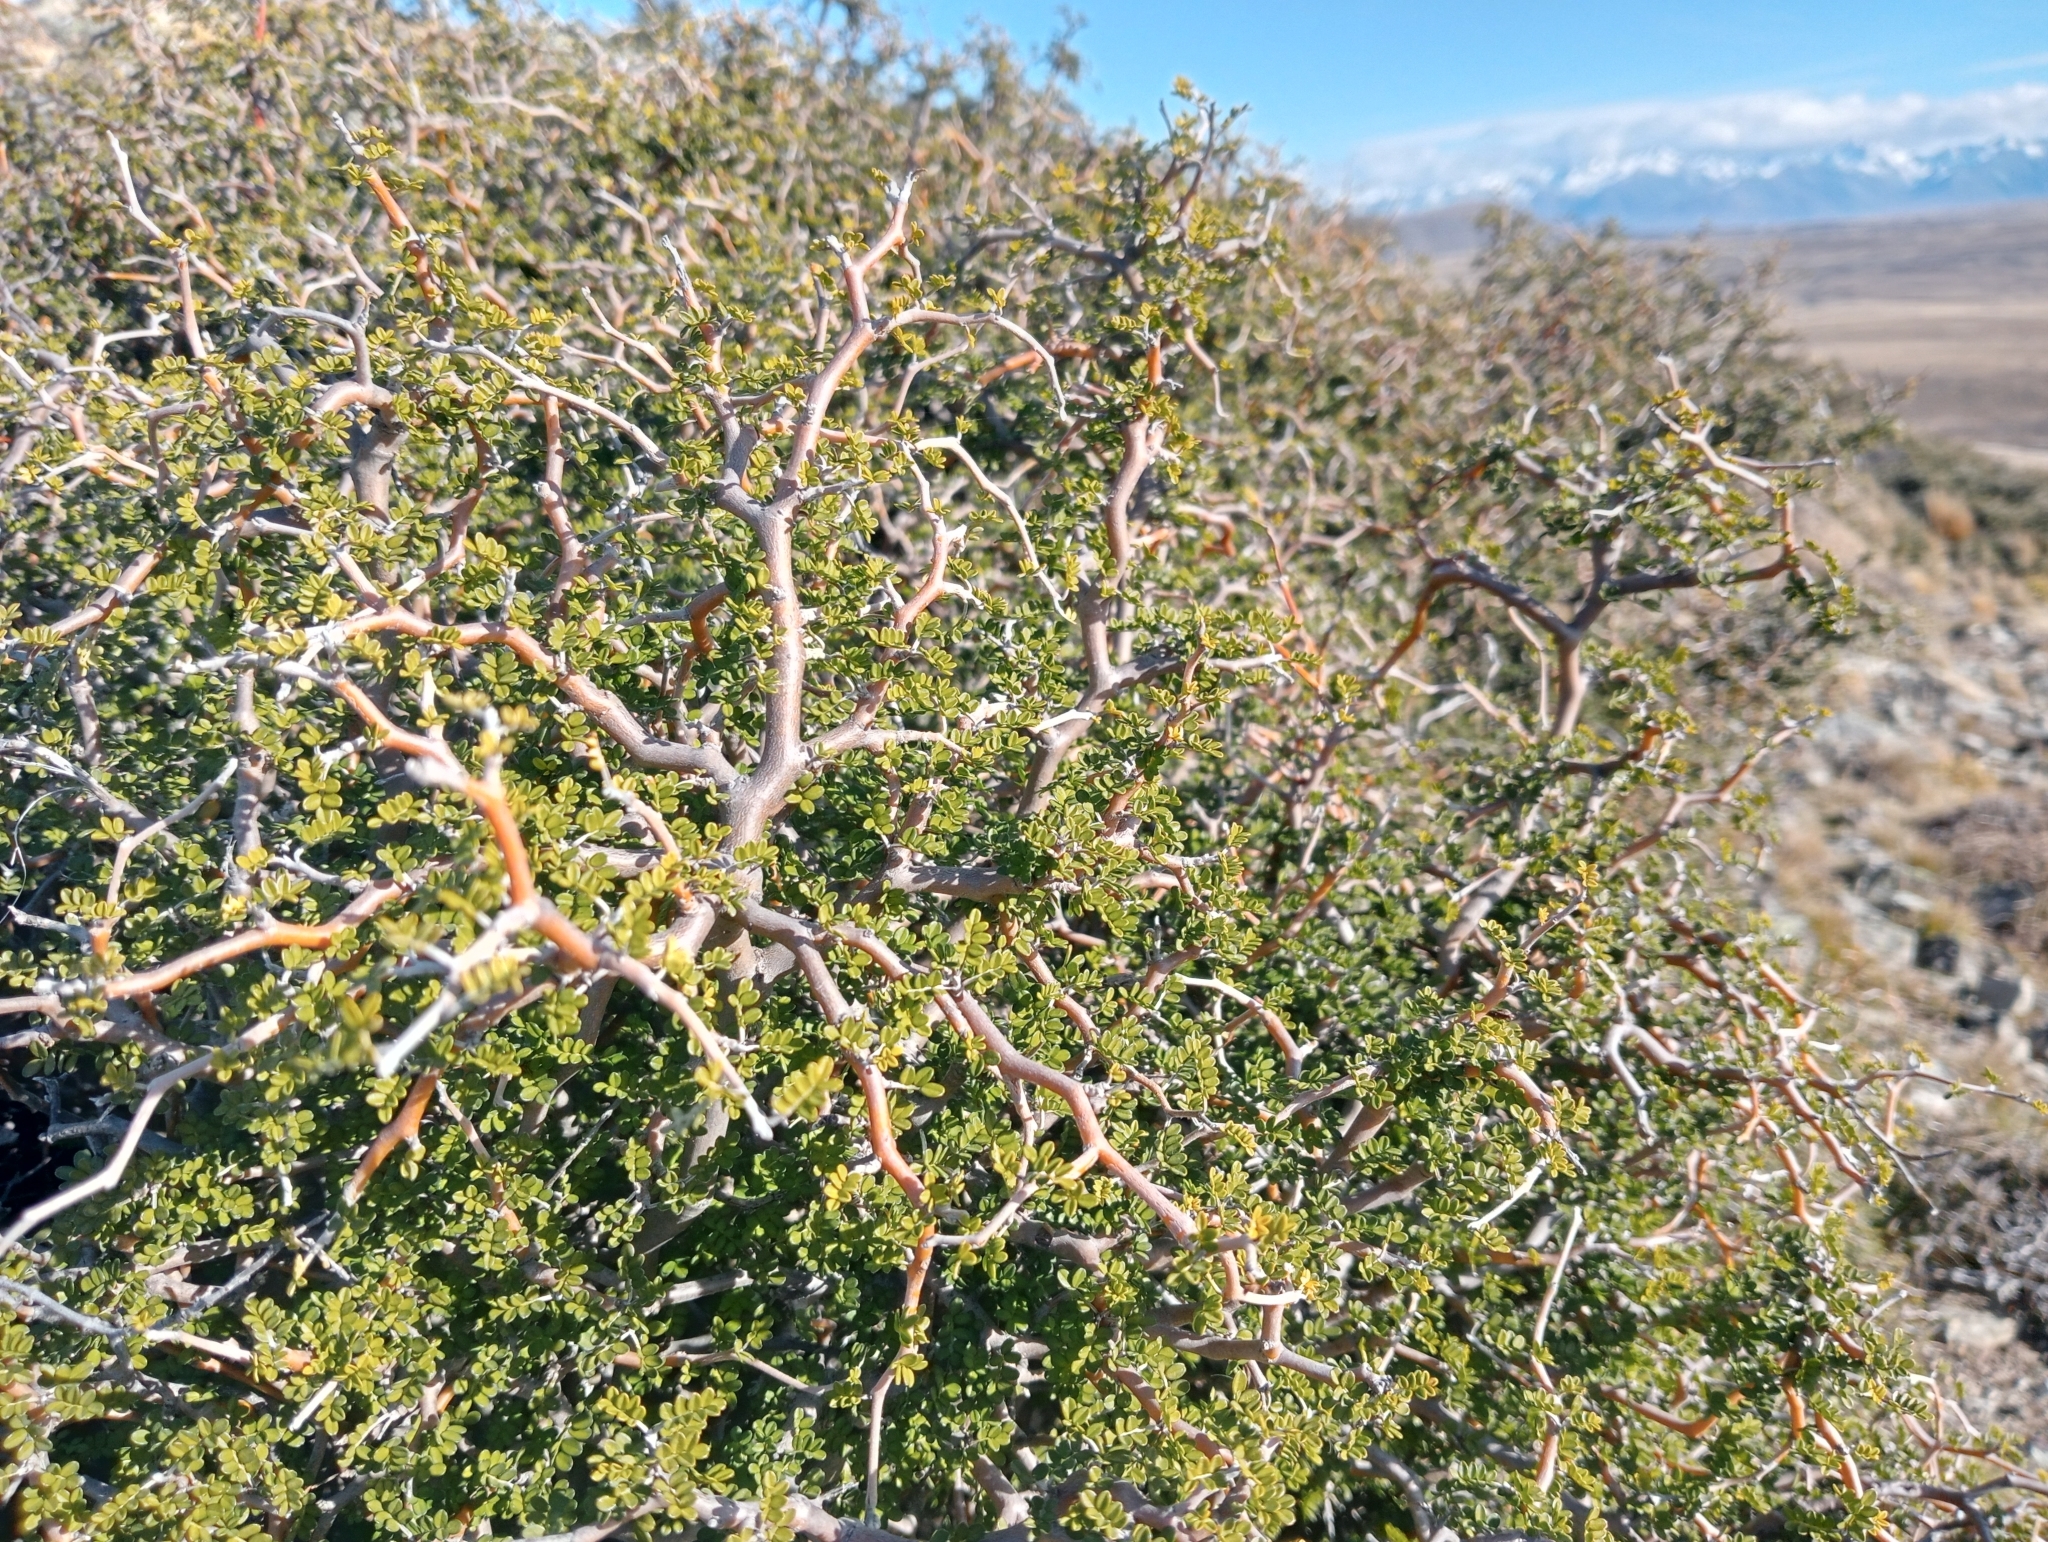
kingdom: Plantae
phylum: Tracheophyta
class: Magnoliopsida
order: Fabales
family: Fabaceae
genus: Sophora
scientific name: Sophora prostrata
